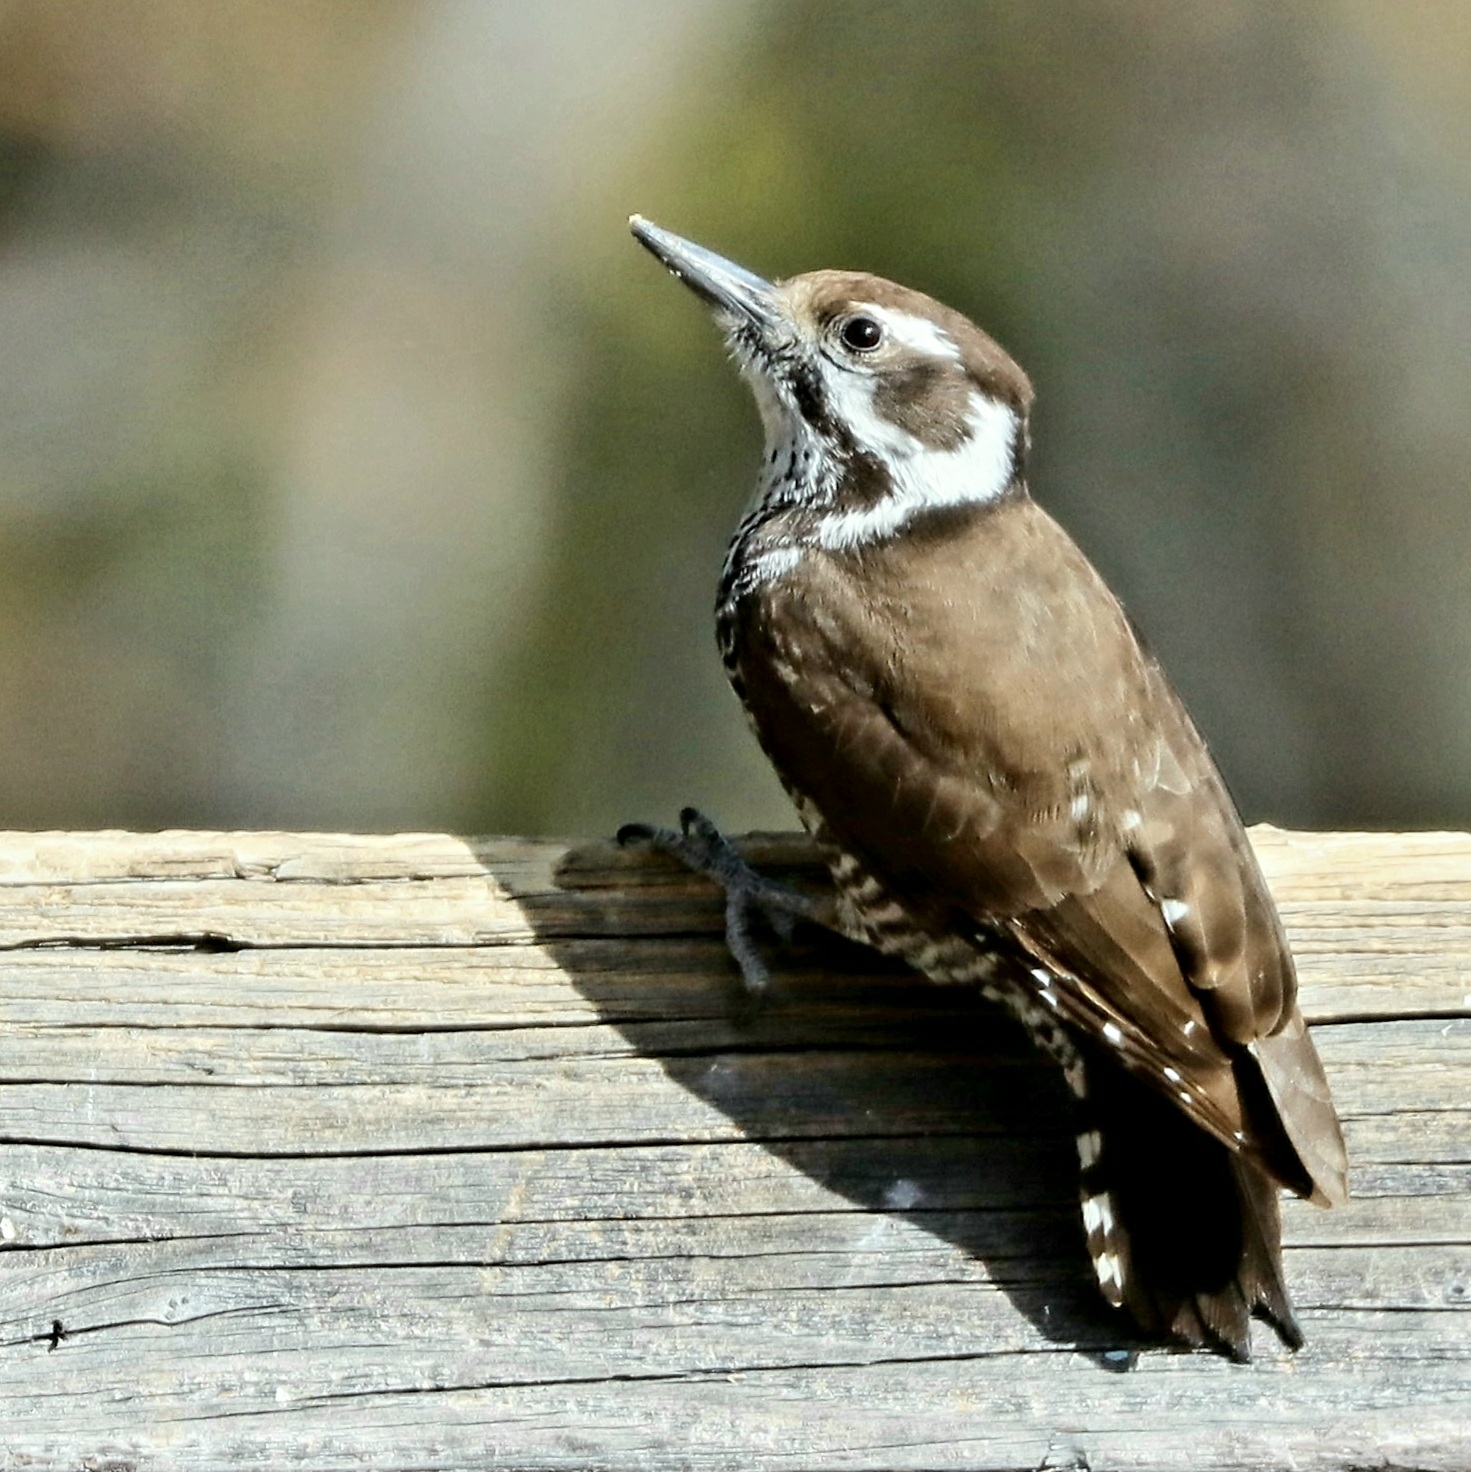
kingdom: Animalia
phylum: Chordata
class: Aves
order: Piciformes
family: Picidae
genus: Leuconotopicus
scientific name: Leuconotopicus arizonae
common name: Arizona woodpecker
